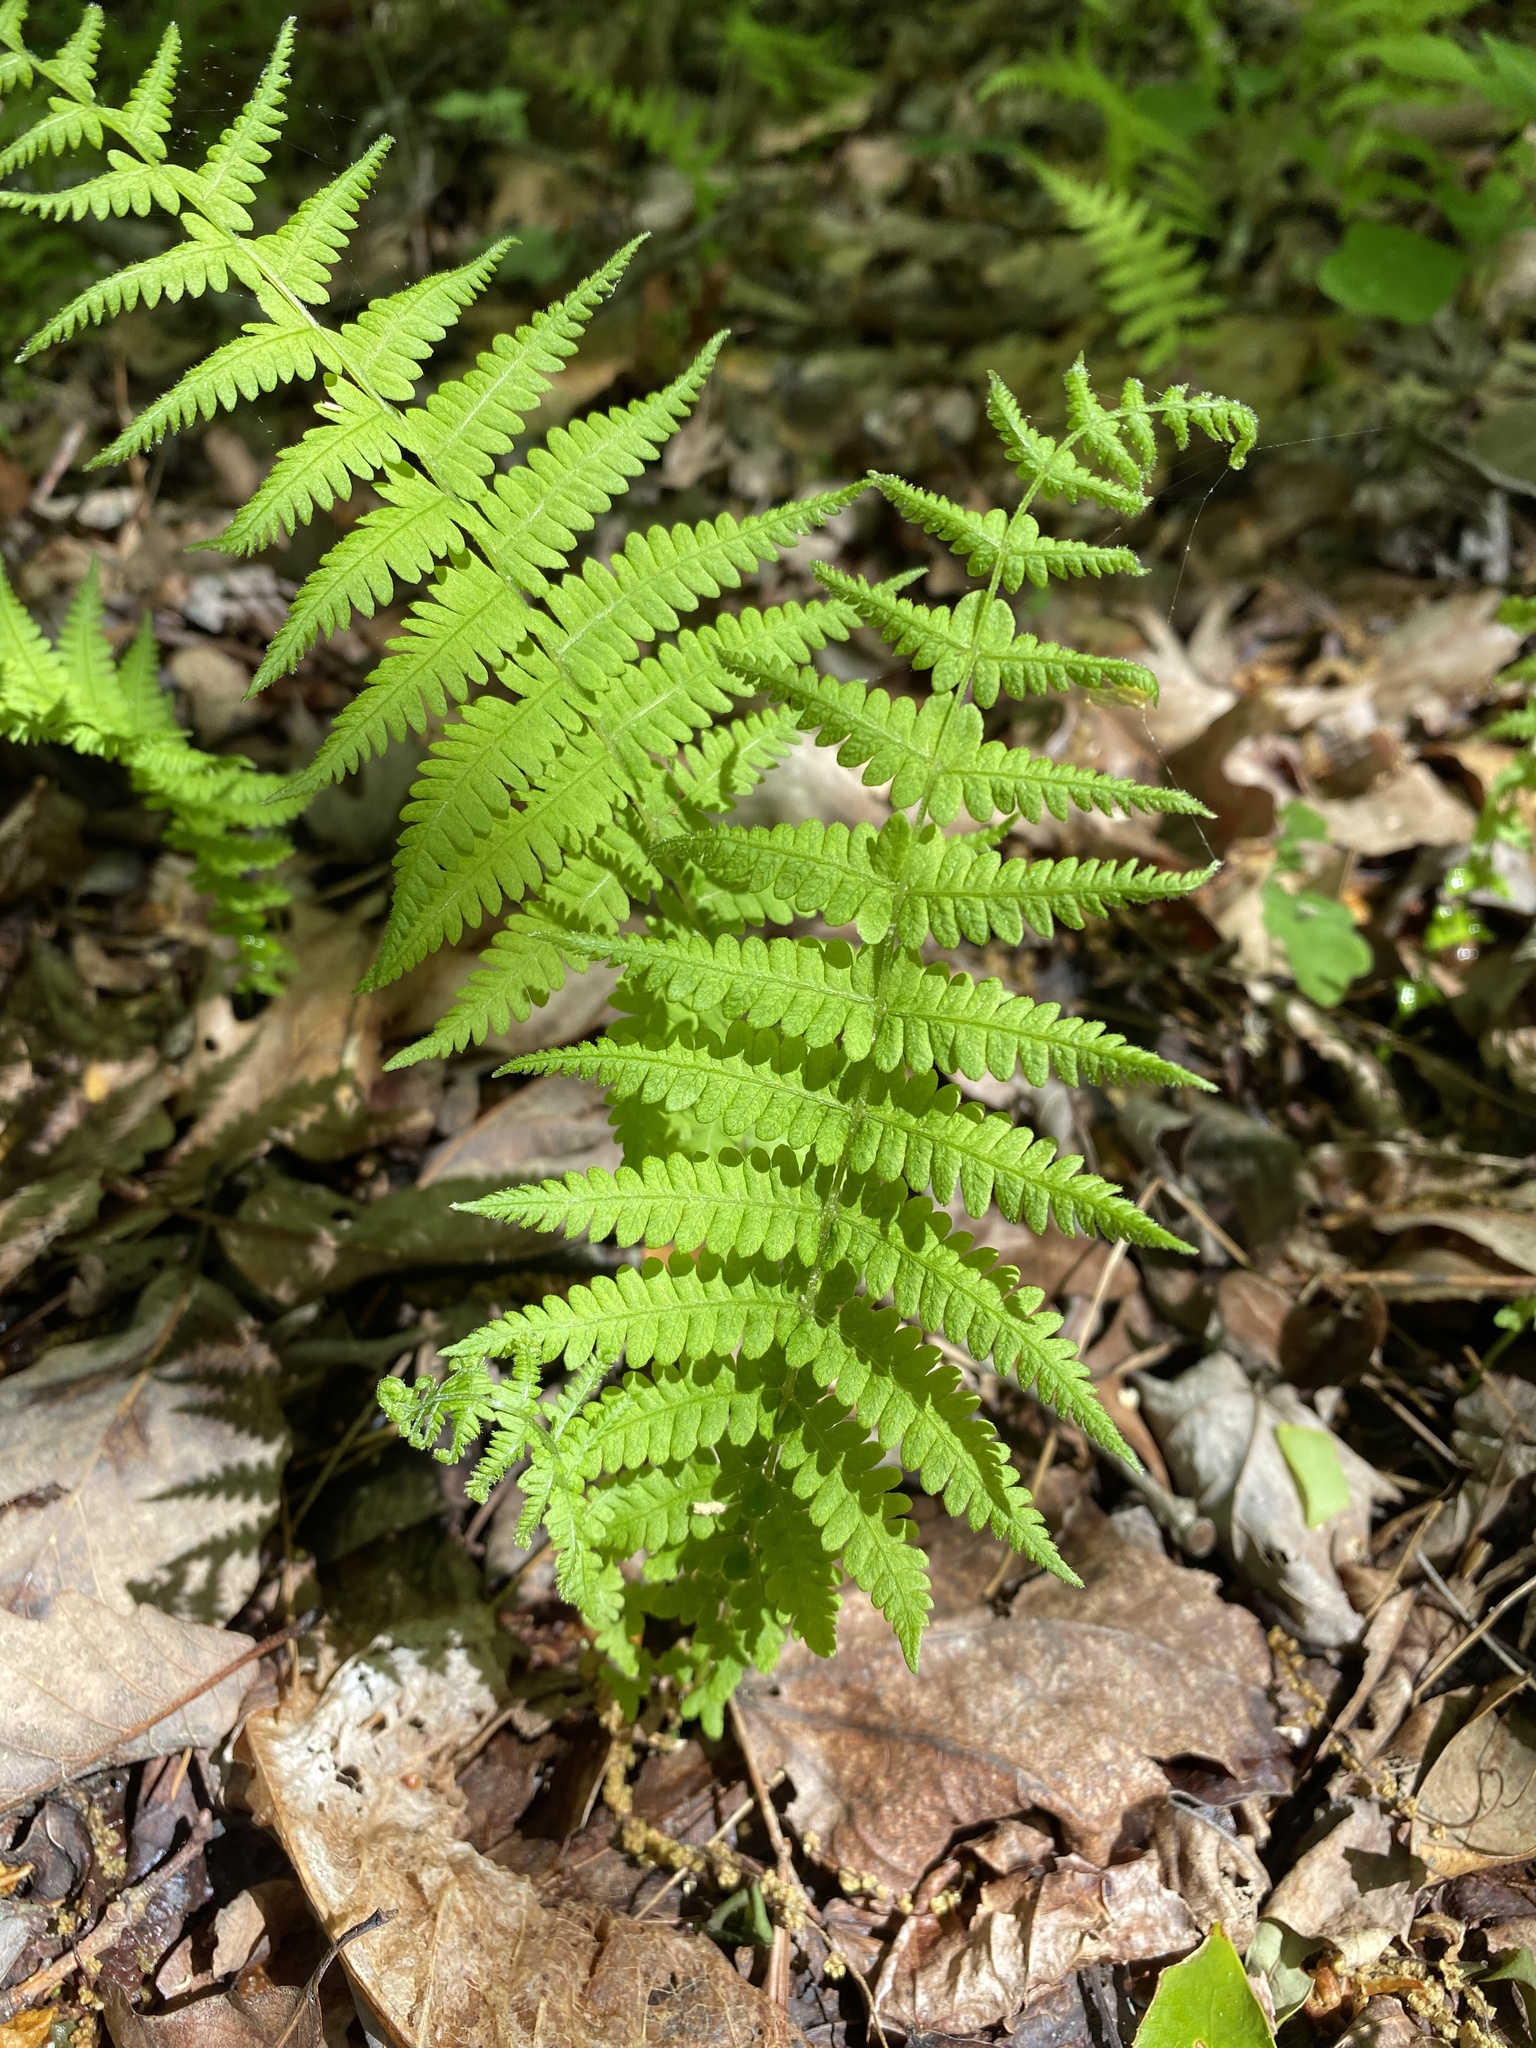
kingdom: Plantae
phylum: Tracheophyta
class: Polypodiopsida
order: Polypodiales
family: Thelypteridaceae
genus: Amauropelta
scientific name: Amauropelta noveboracensis
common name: New york fern
